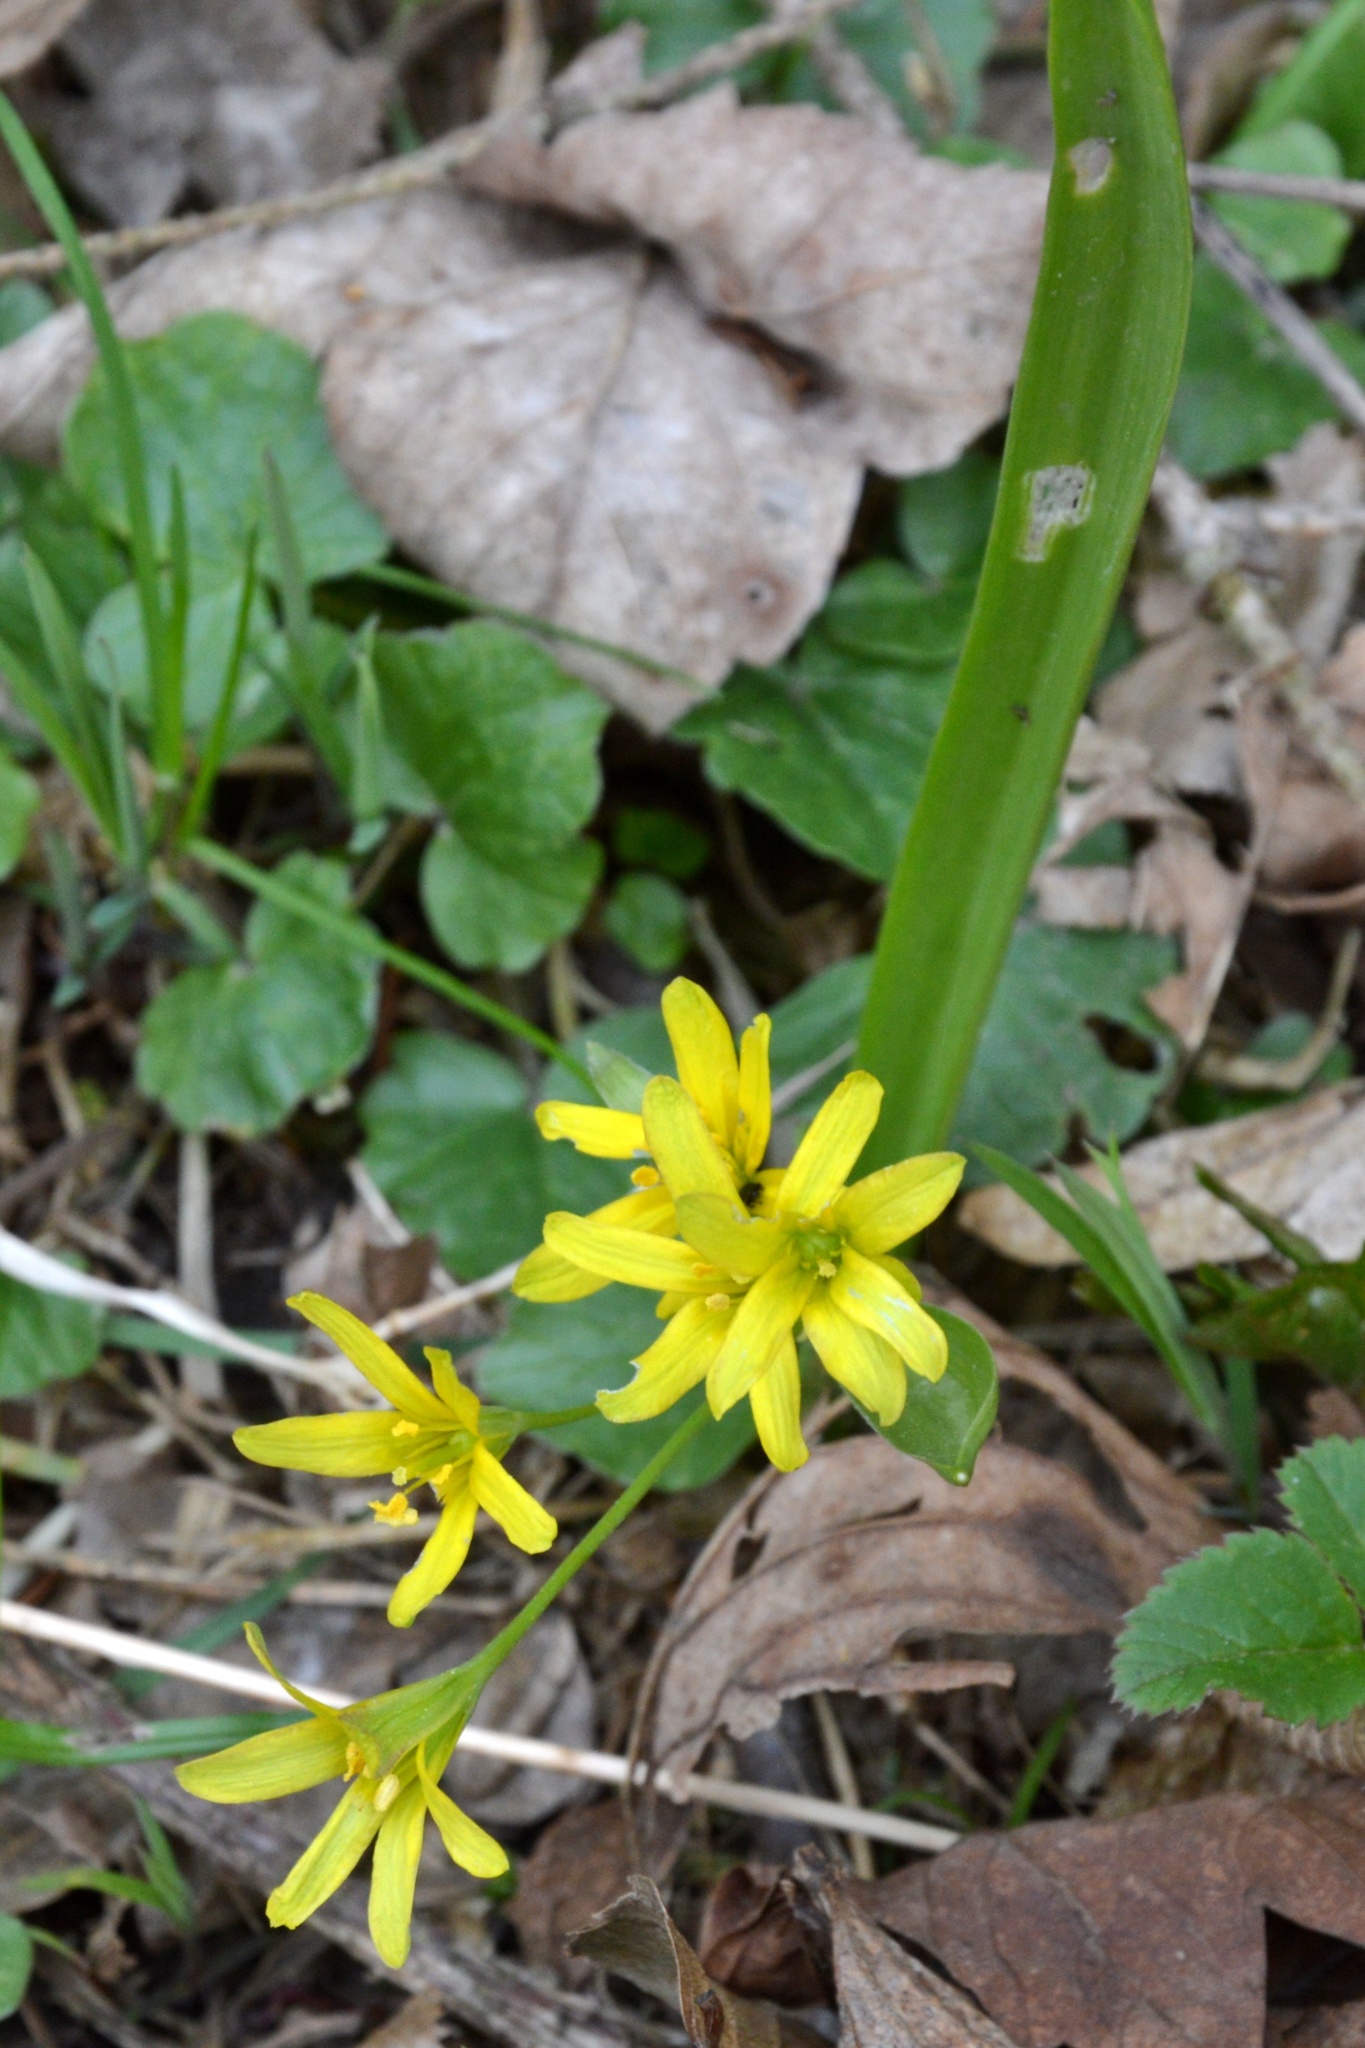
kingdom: Plantae
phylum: Tracheophyta
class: Liliopsida
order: Liliales
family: Liliaceae
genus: Gagea
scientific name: Gagea lutea
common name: Yellow star-of-bethlehem
